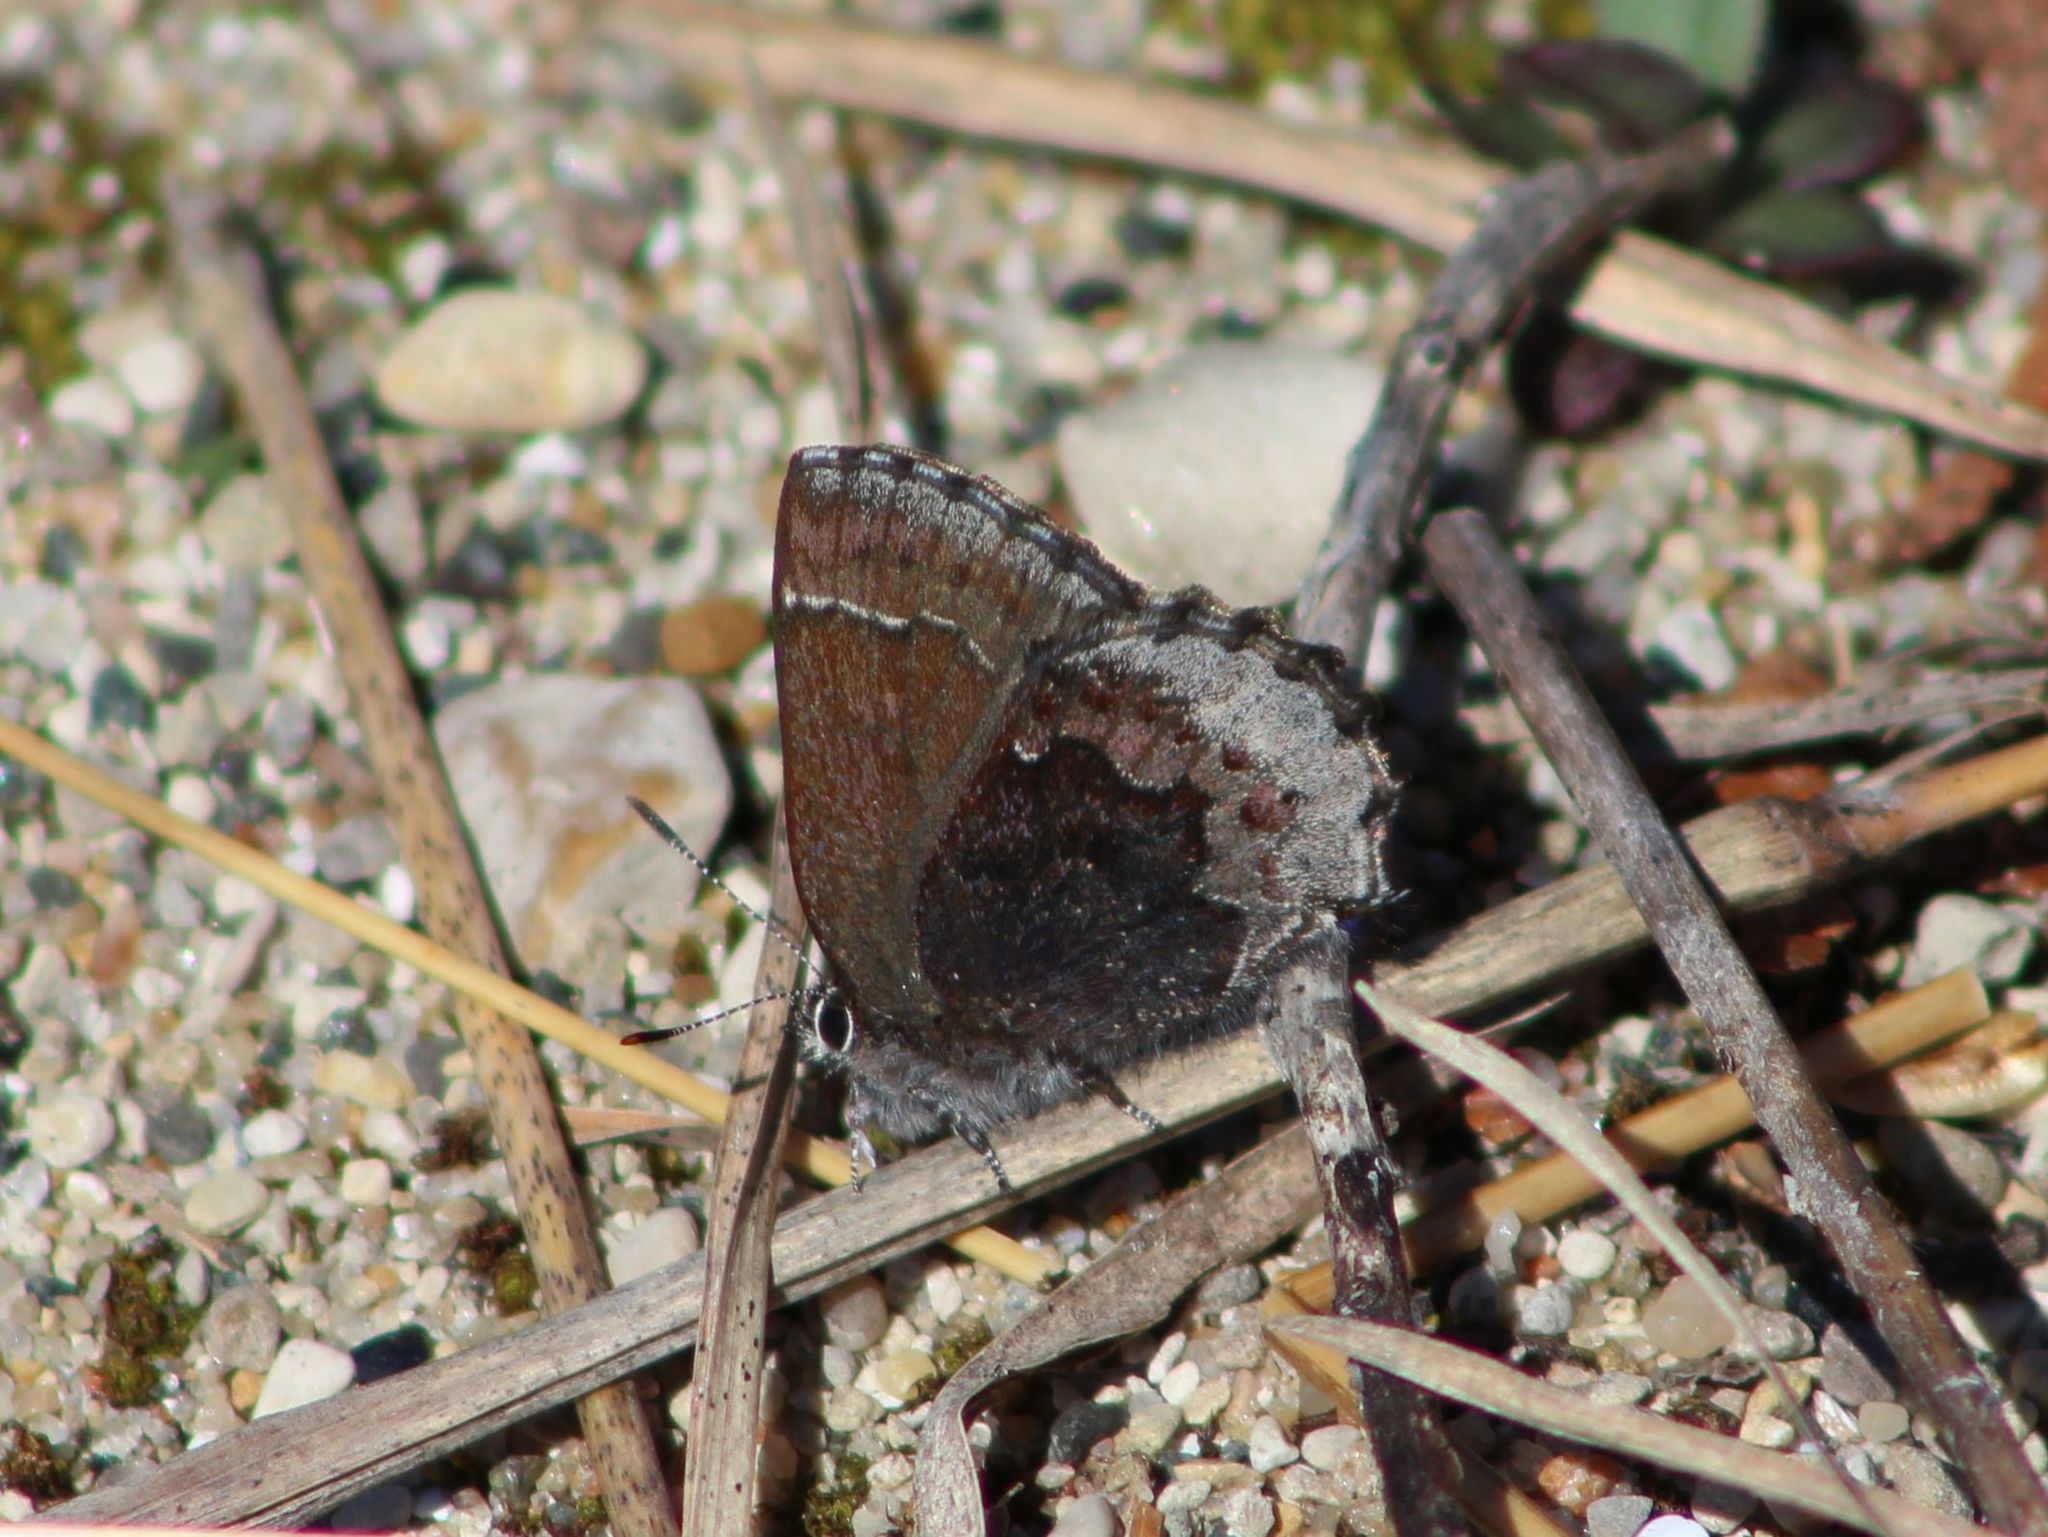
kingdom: Animalia
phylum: Arthropoda
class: Insecta
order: Lepidoptera
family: Lycaenidae
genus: Callophrys
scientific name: Callophrys polios
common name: Hoary elfin
